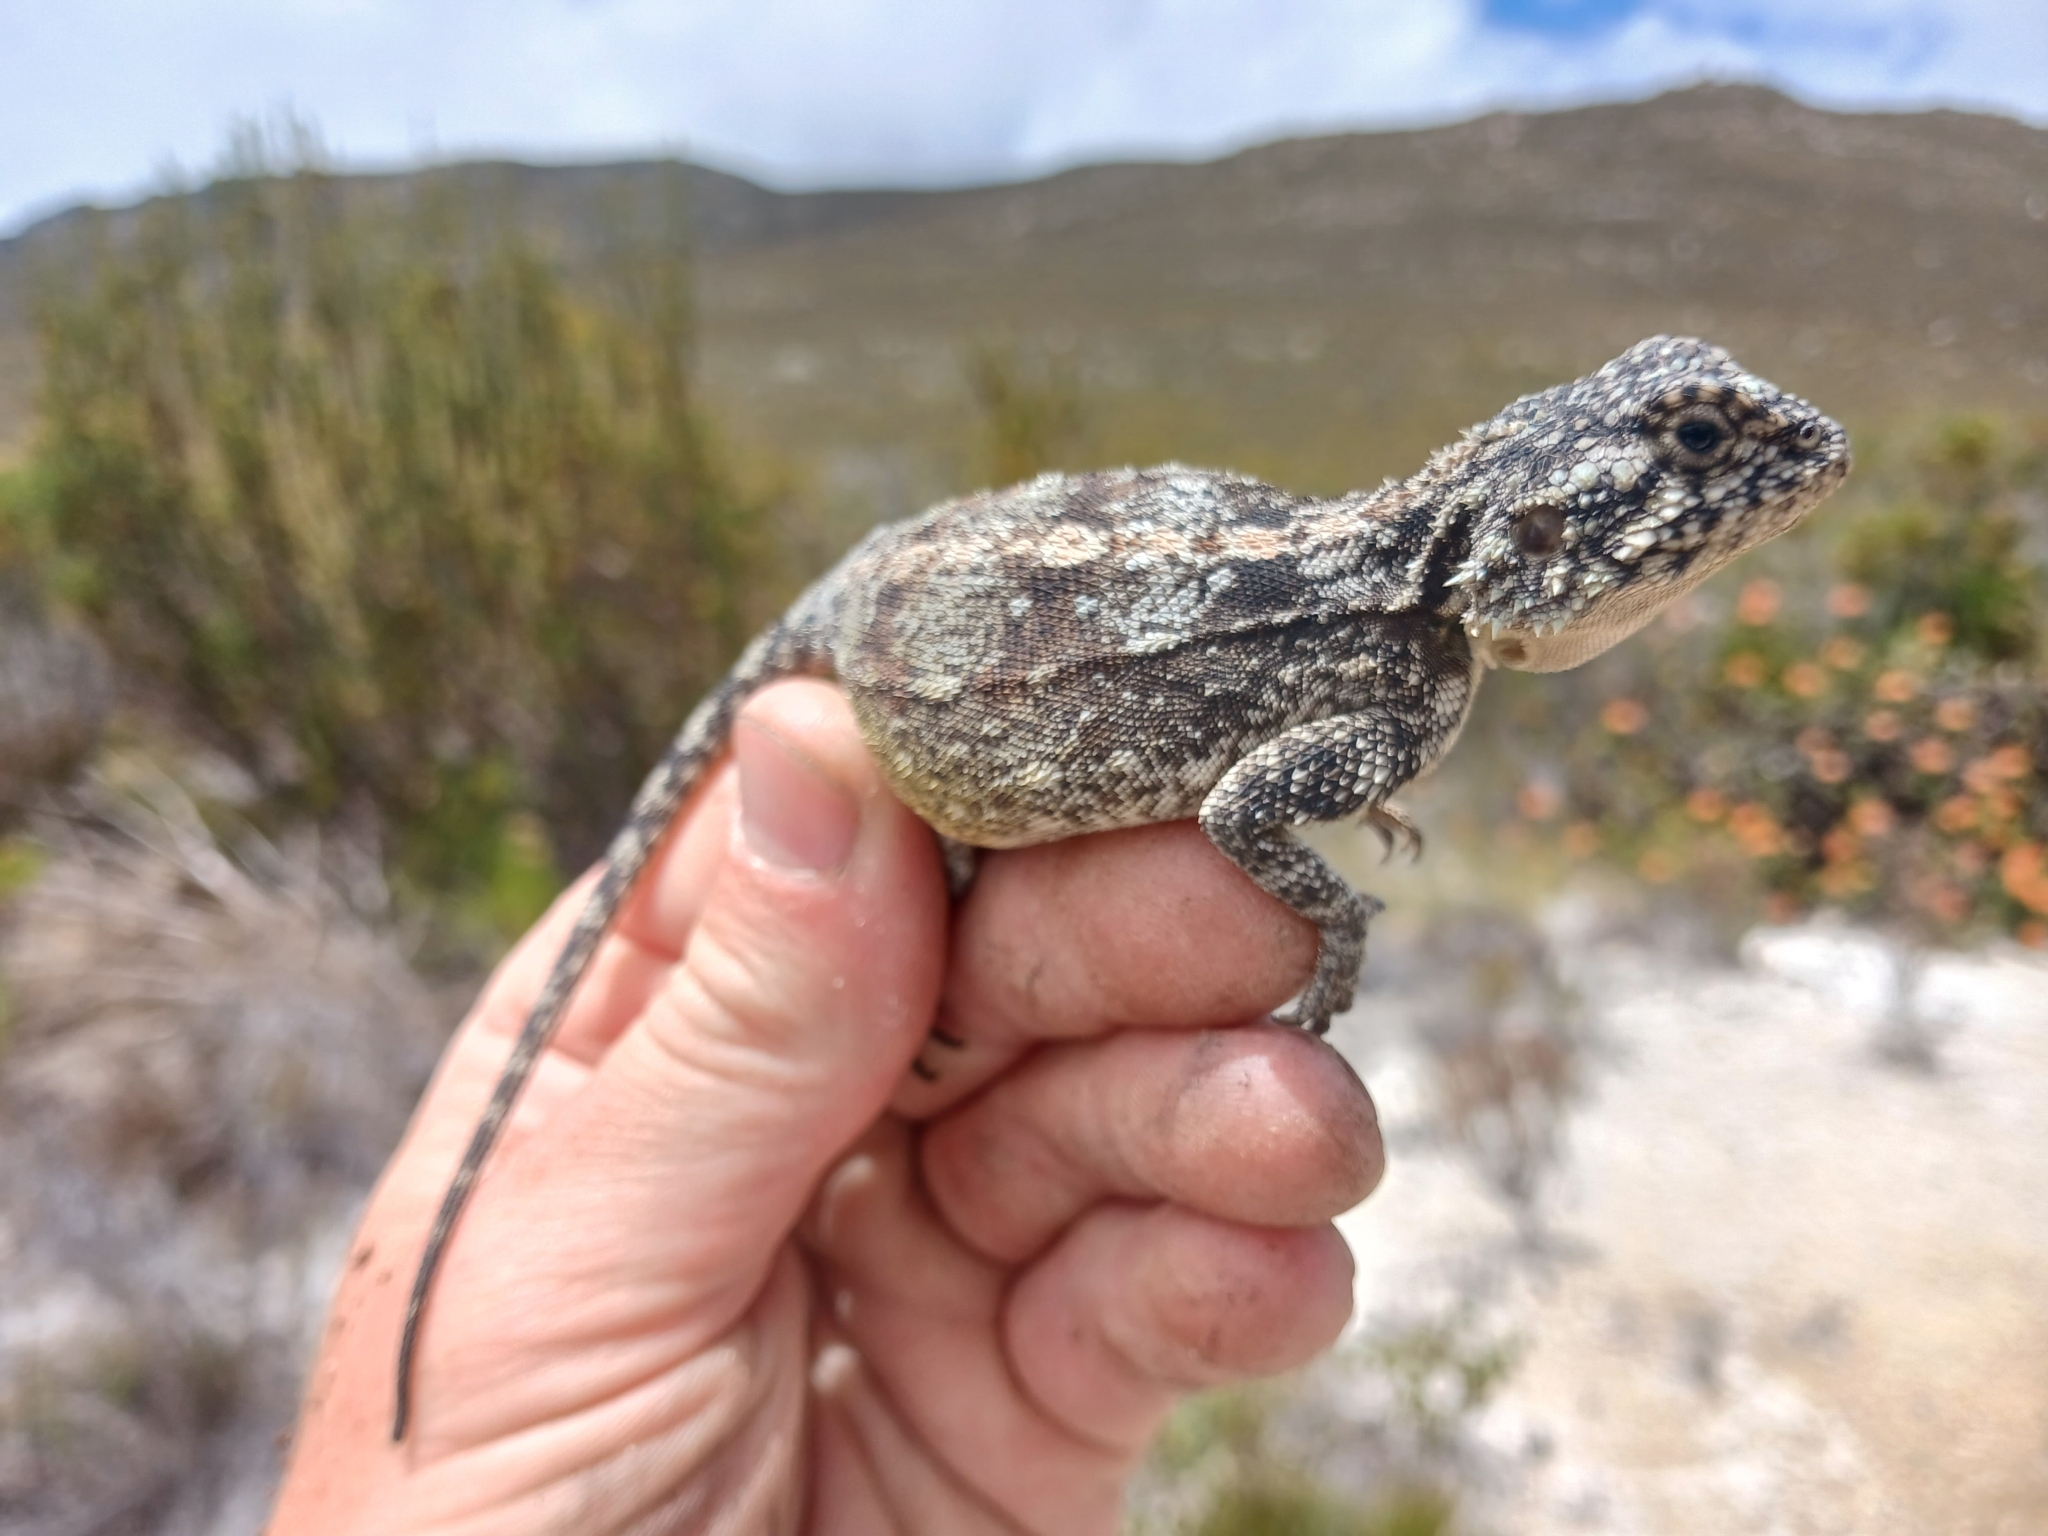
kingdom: Animalia
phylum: Chordata
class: Squamata
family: Agamidae
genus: Agama
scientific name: Agama atra
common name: Southern african rock agama
